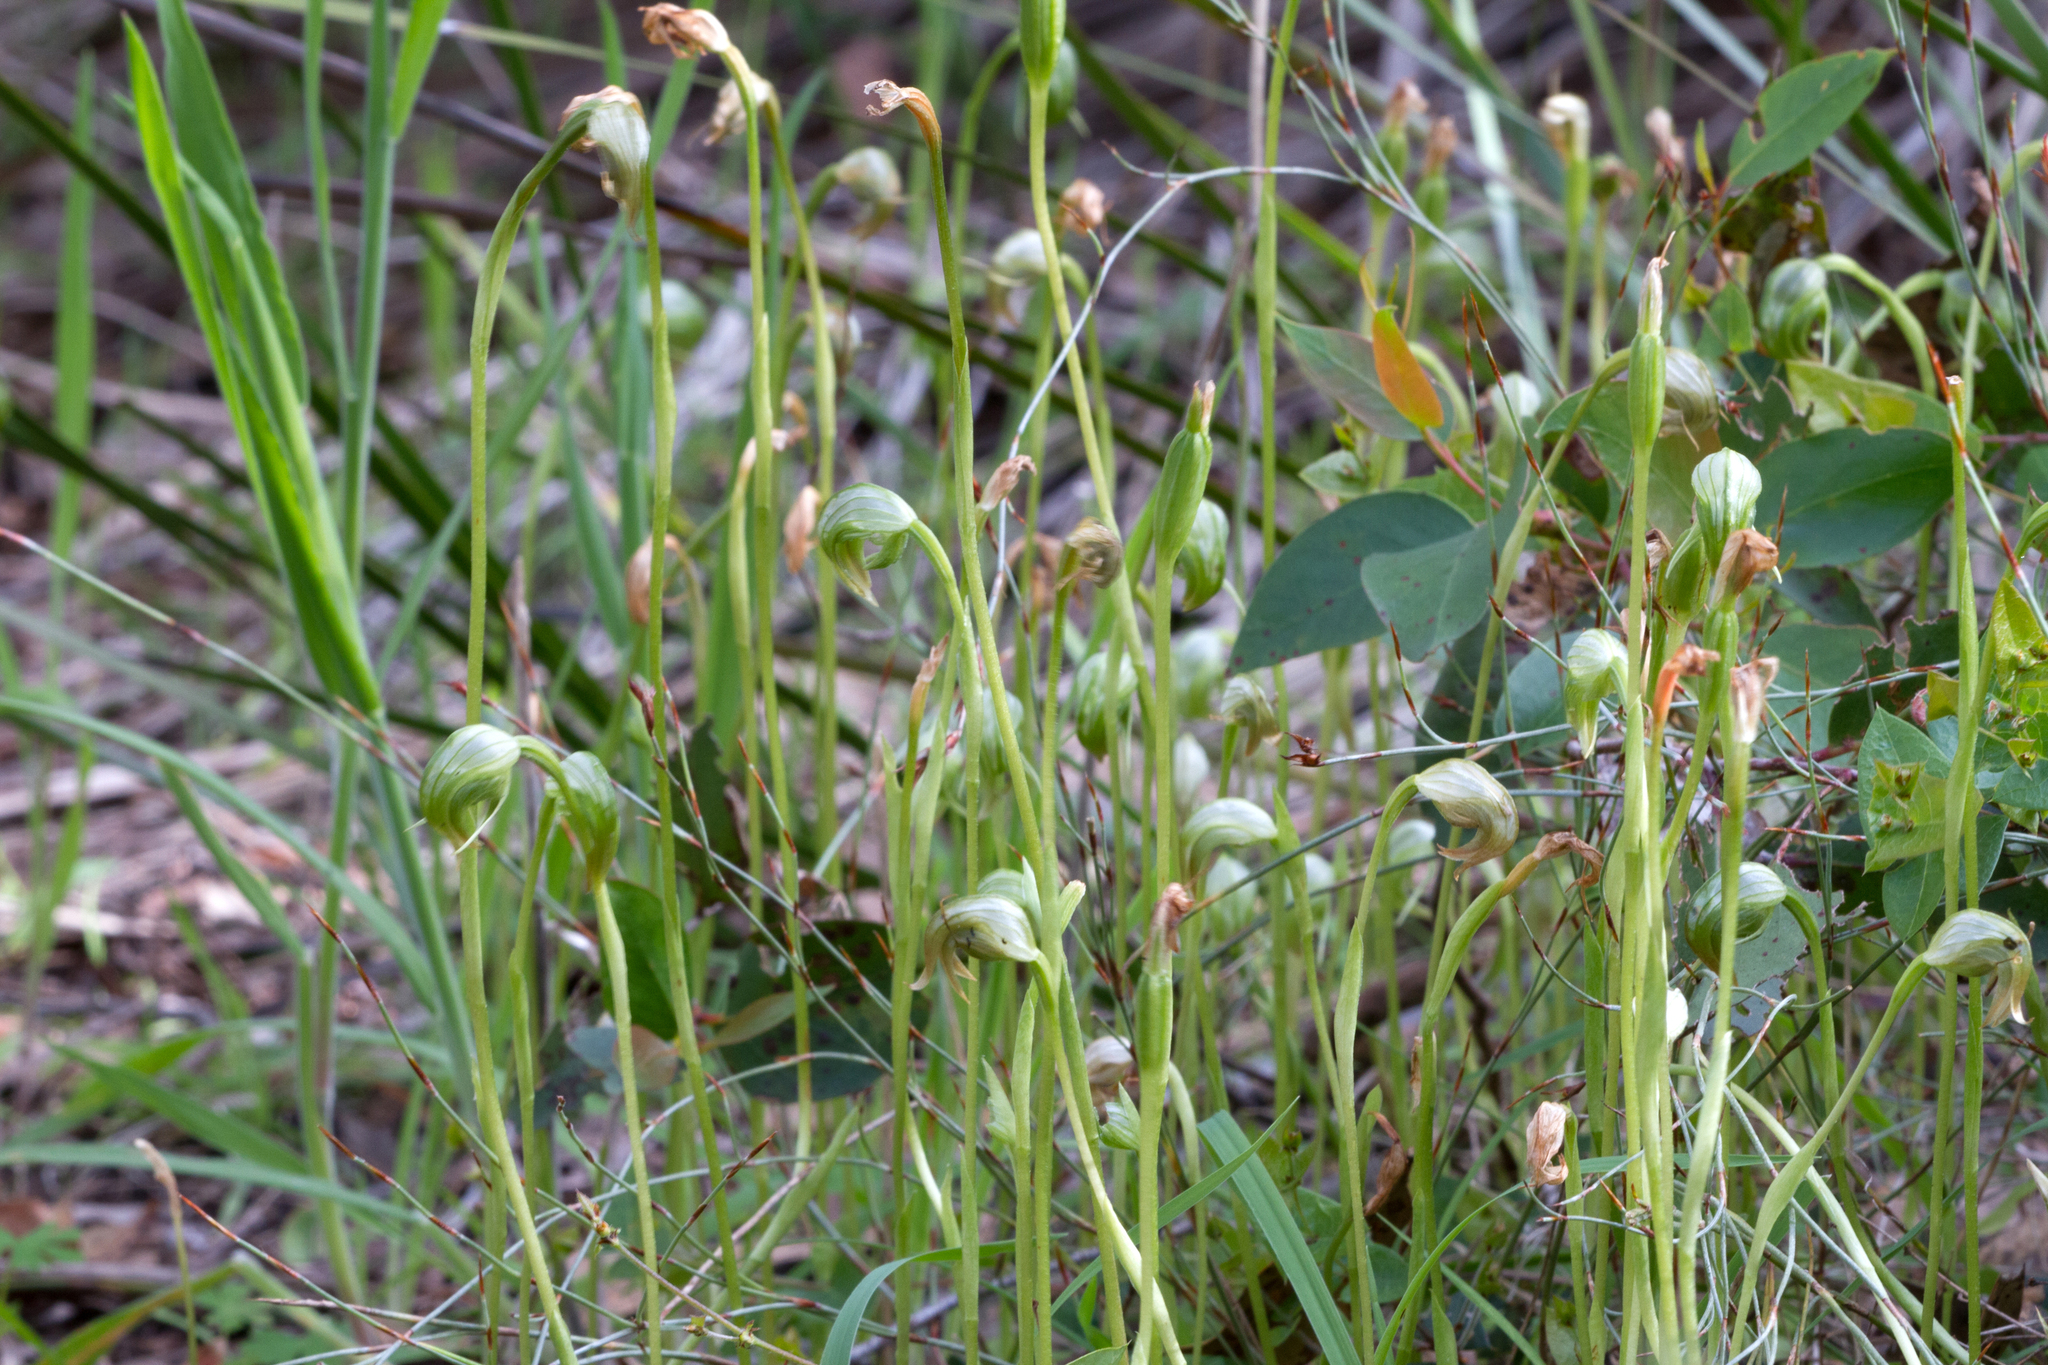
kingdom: Plantae
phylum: Tracheophyta
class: Liliopsida
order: Asparagales
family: Orchidaceae
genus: Pterostylis
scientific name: Pterostylis nutans
